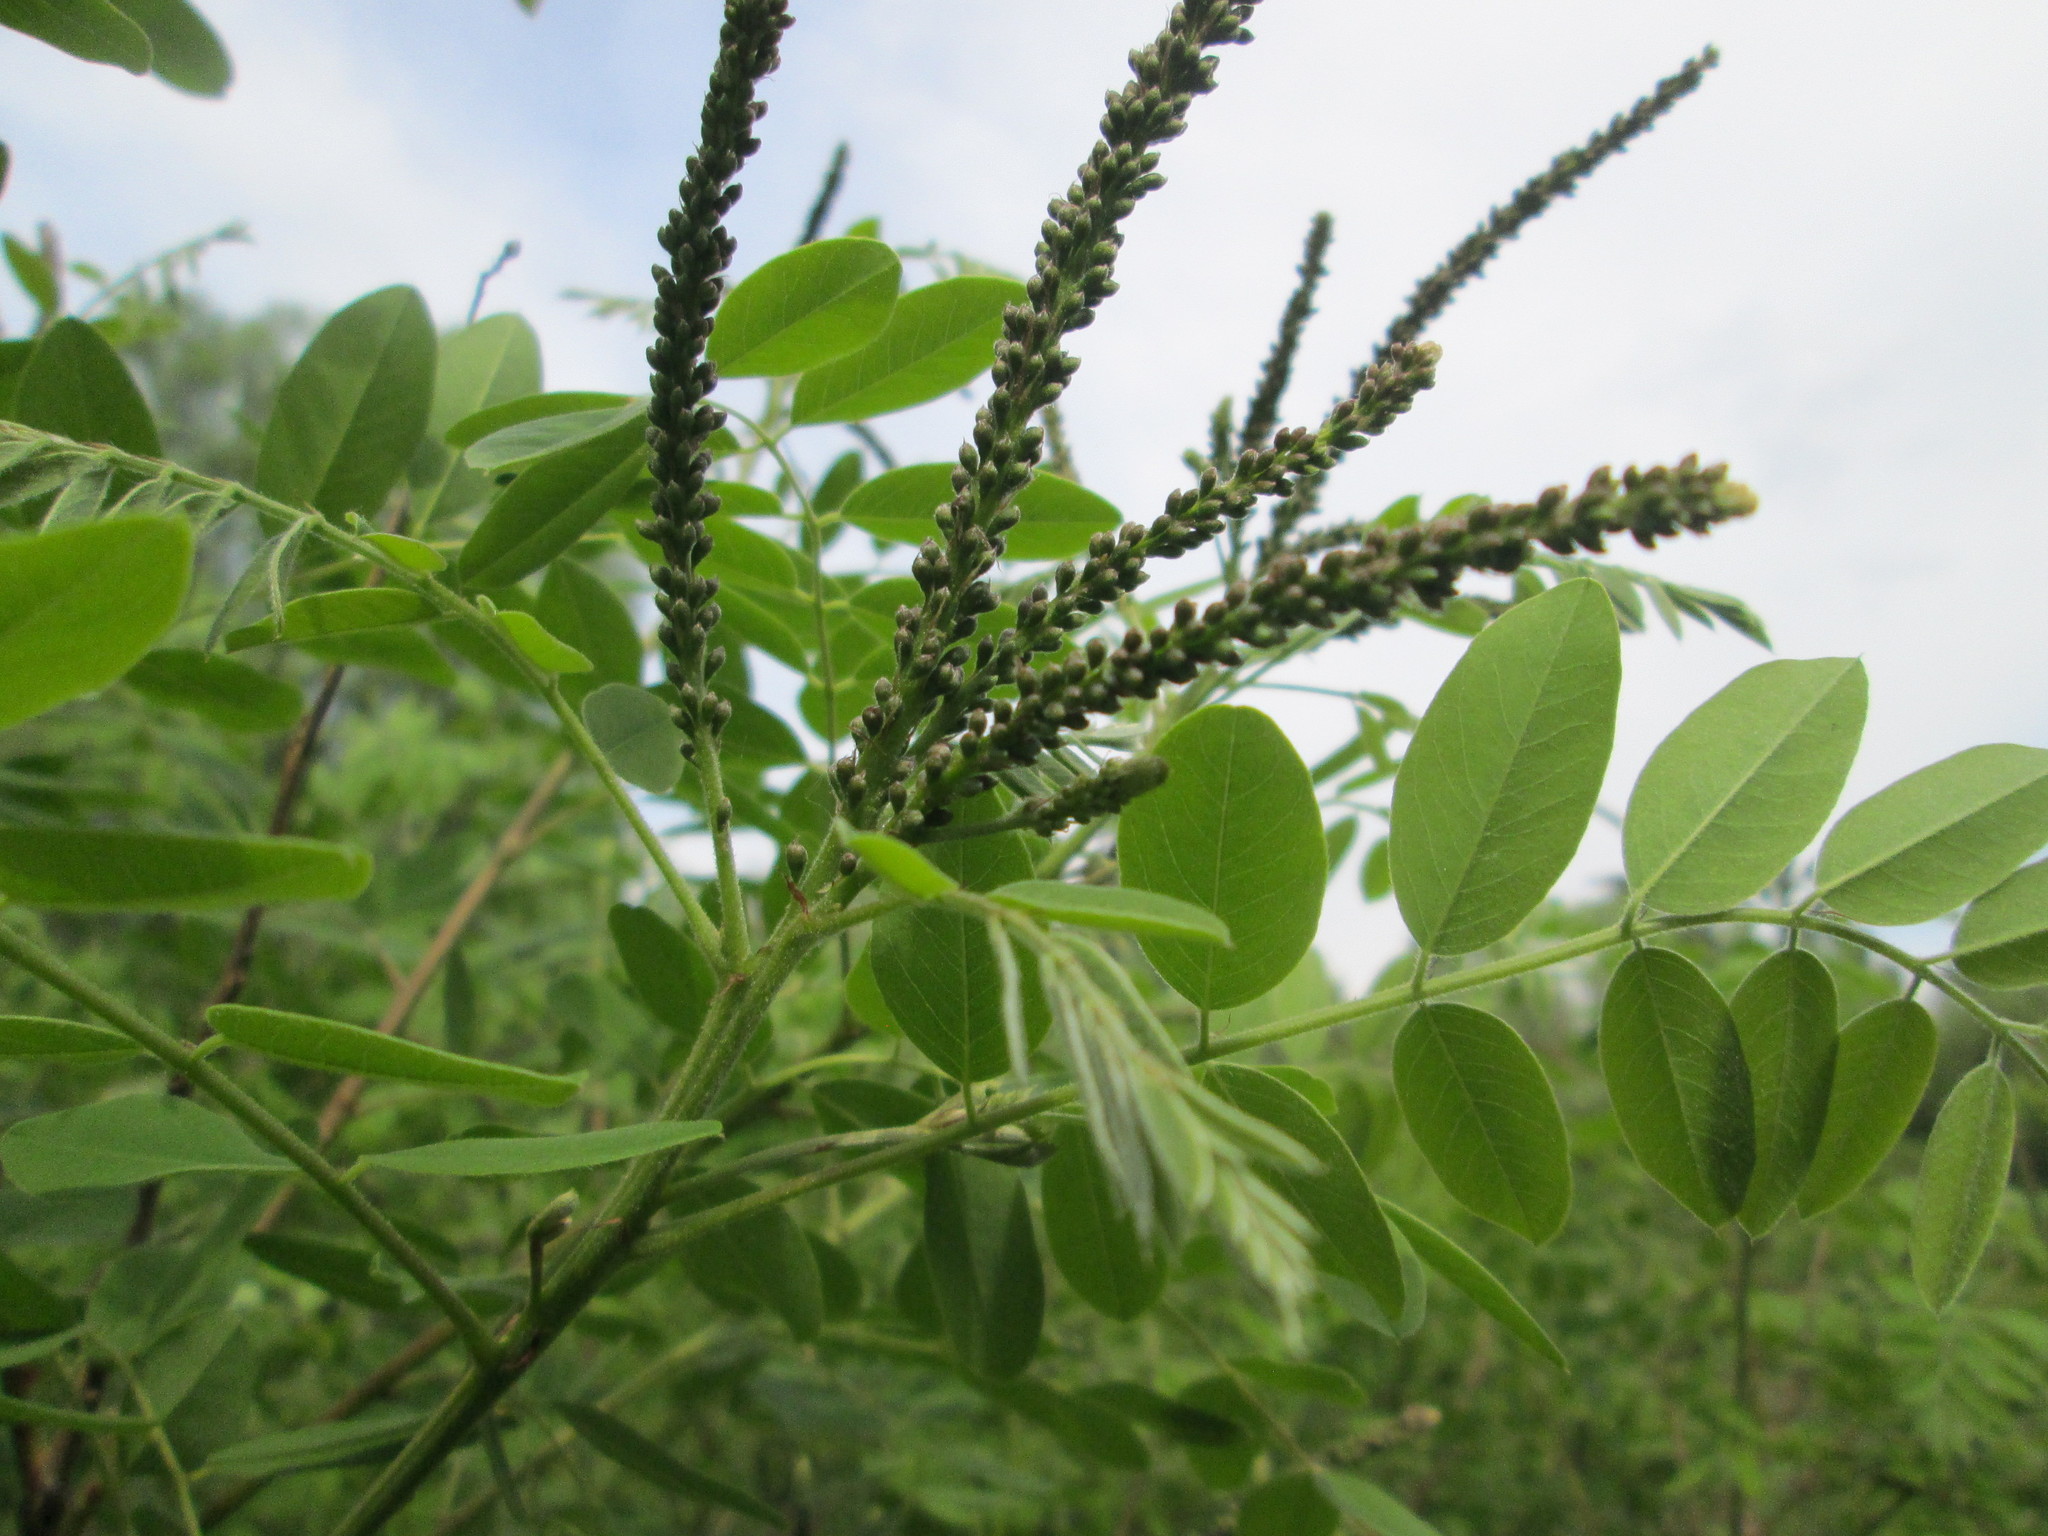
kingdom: Plantae
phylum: Tracheophyta
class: Magnoliopsida
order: Fabales
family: Fabaceae
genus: Amorpha
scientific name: Amorpha fruticosa
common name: False indigo
